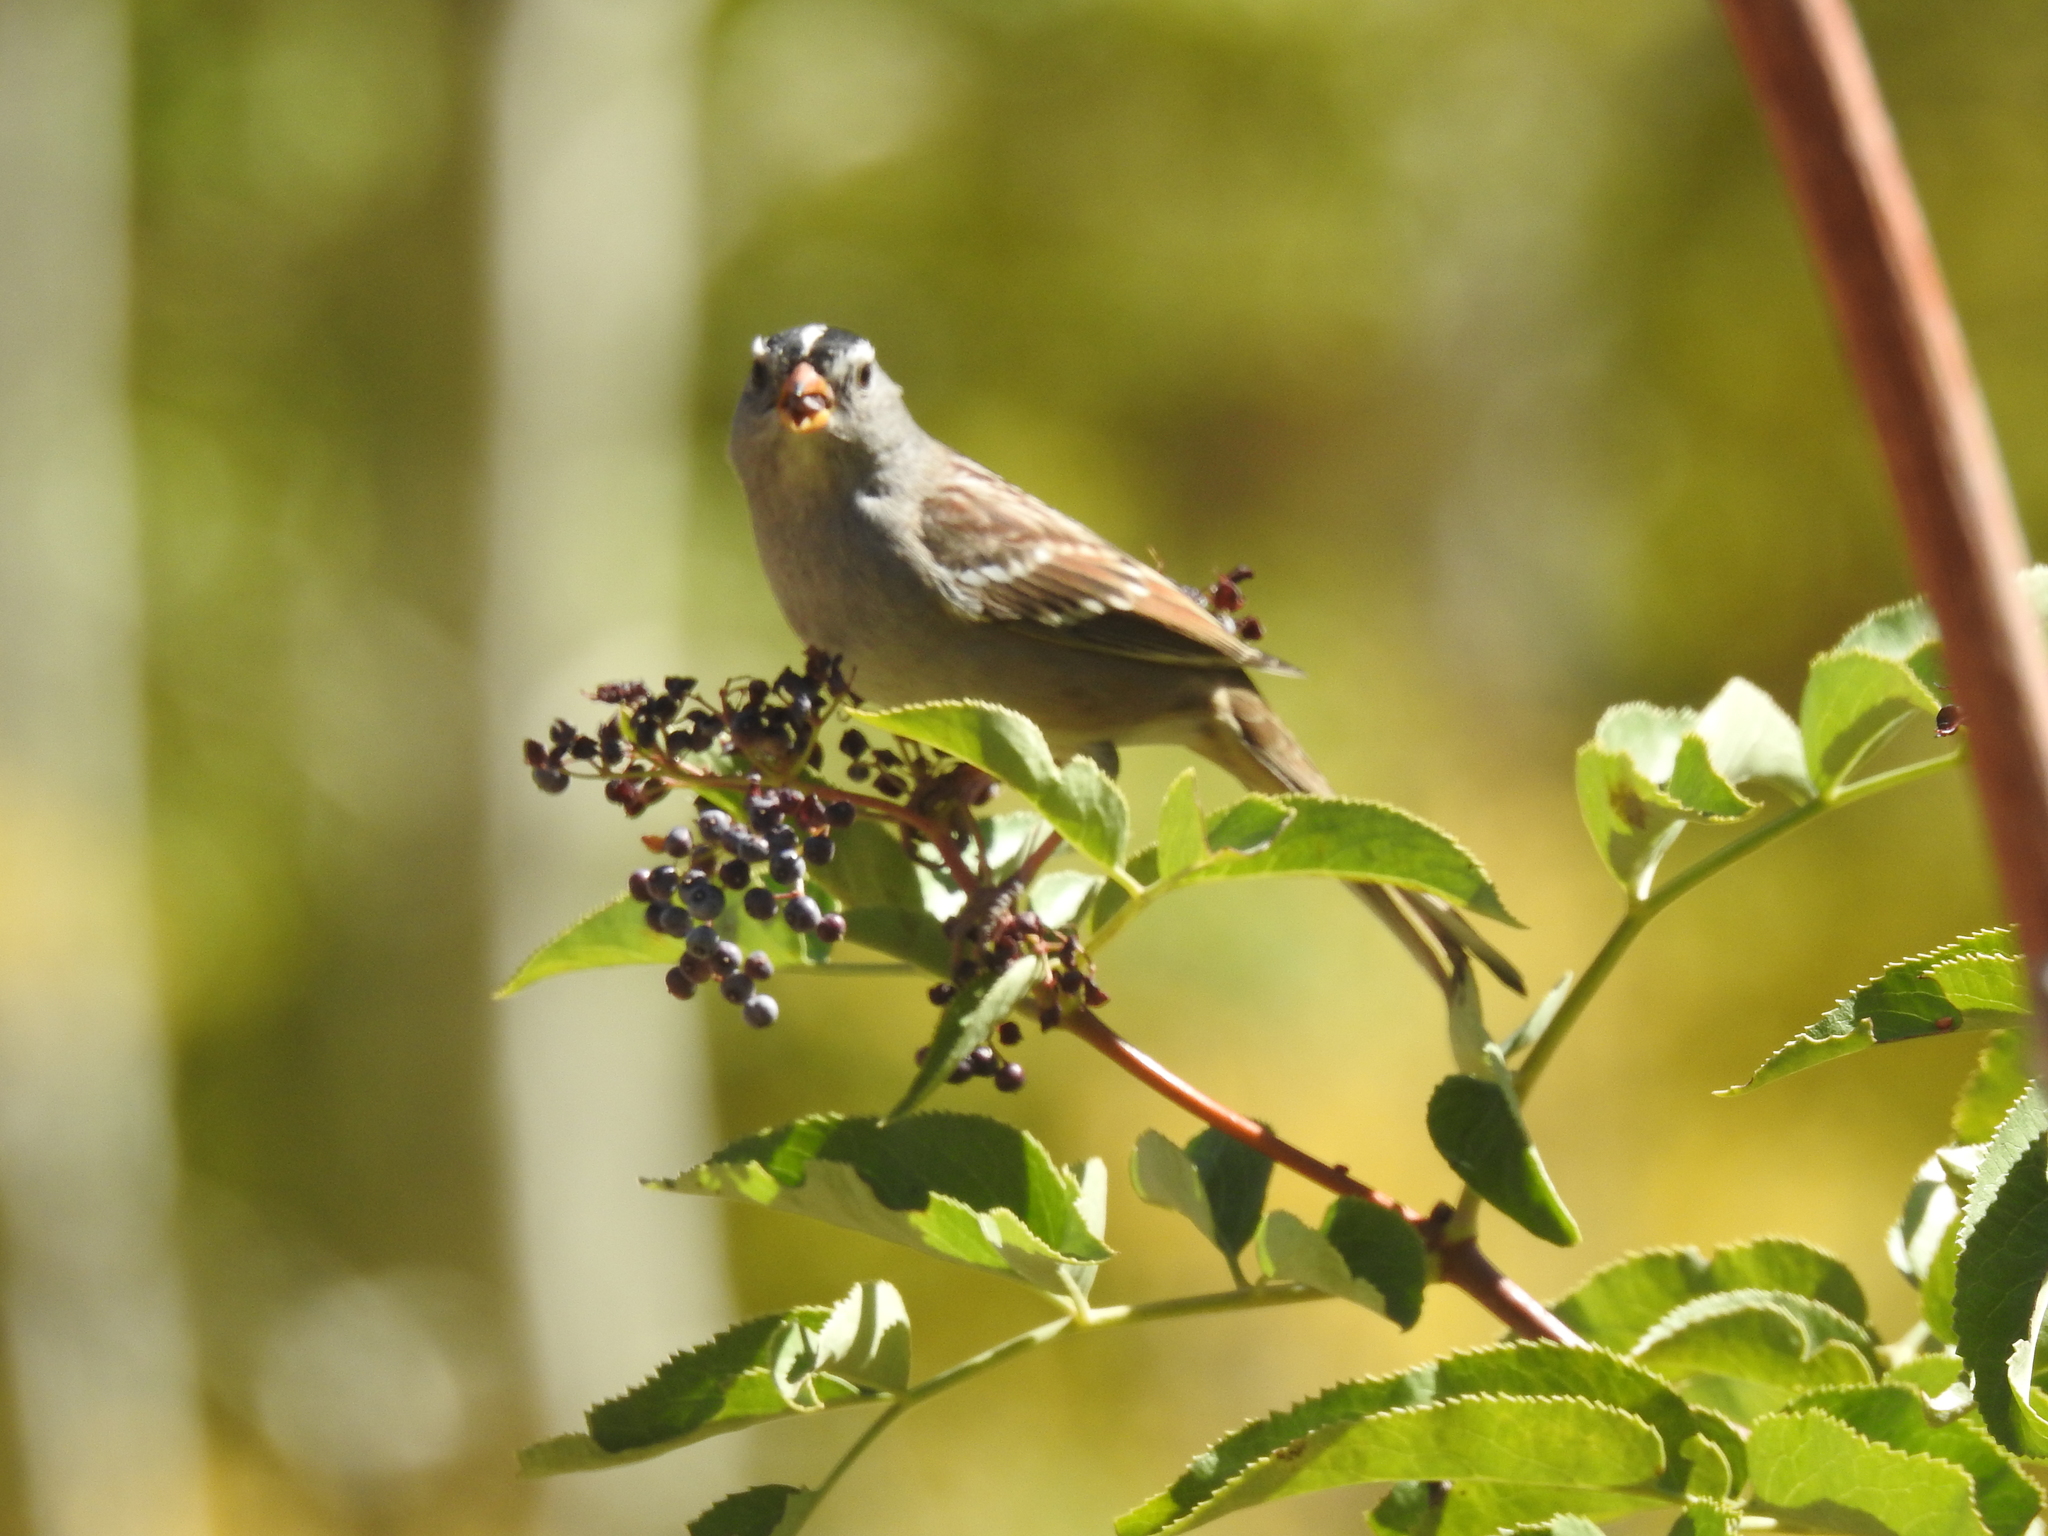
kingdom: Animalia
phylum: Chordata
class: Aves
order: Passeriformes
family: Passerellidae
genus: Zonotrichia
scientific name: Zonotrichia leucophrys
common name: White-crowned sparrow
